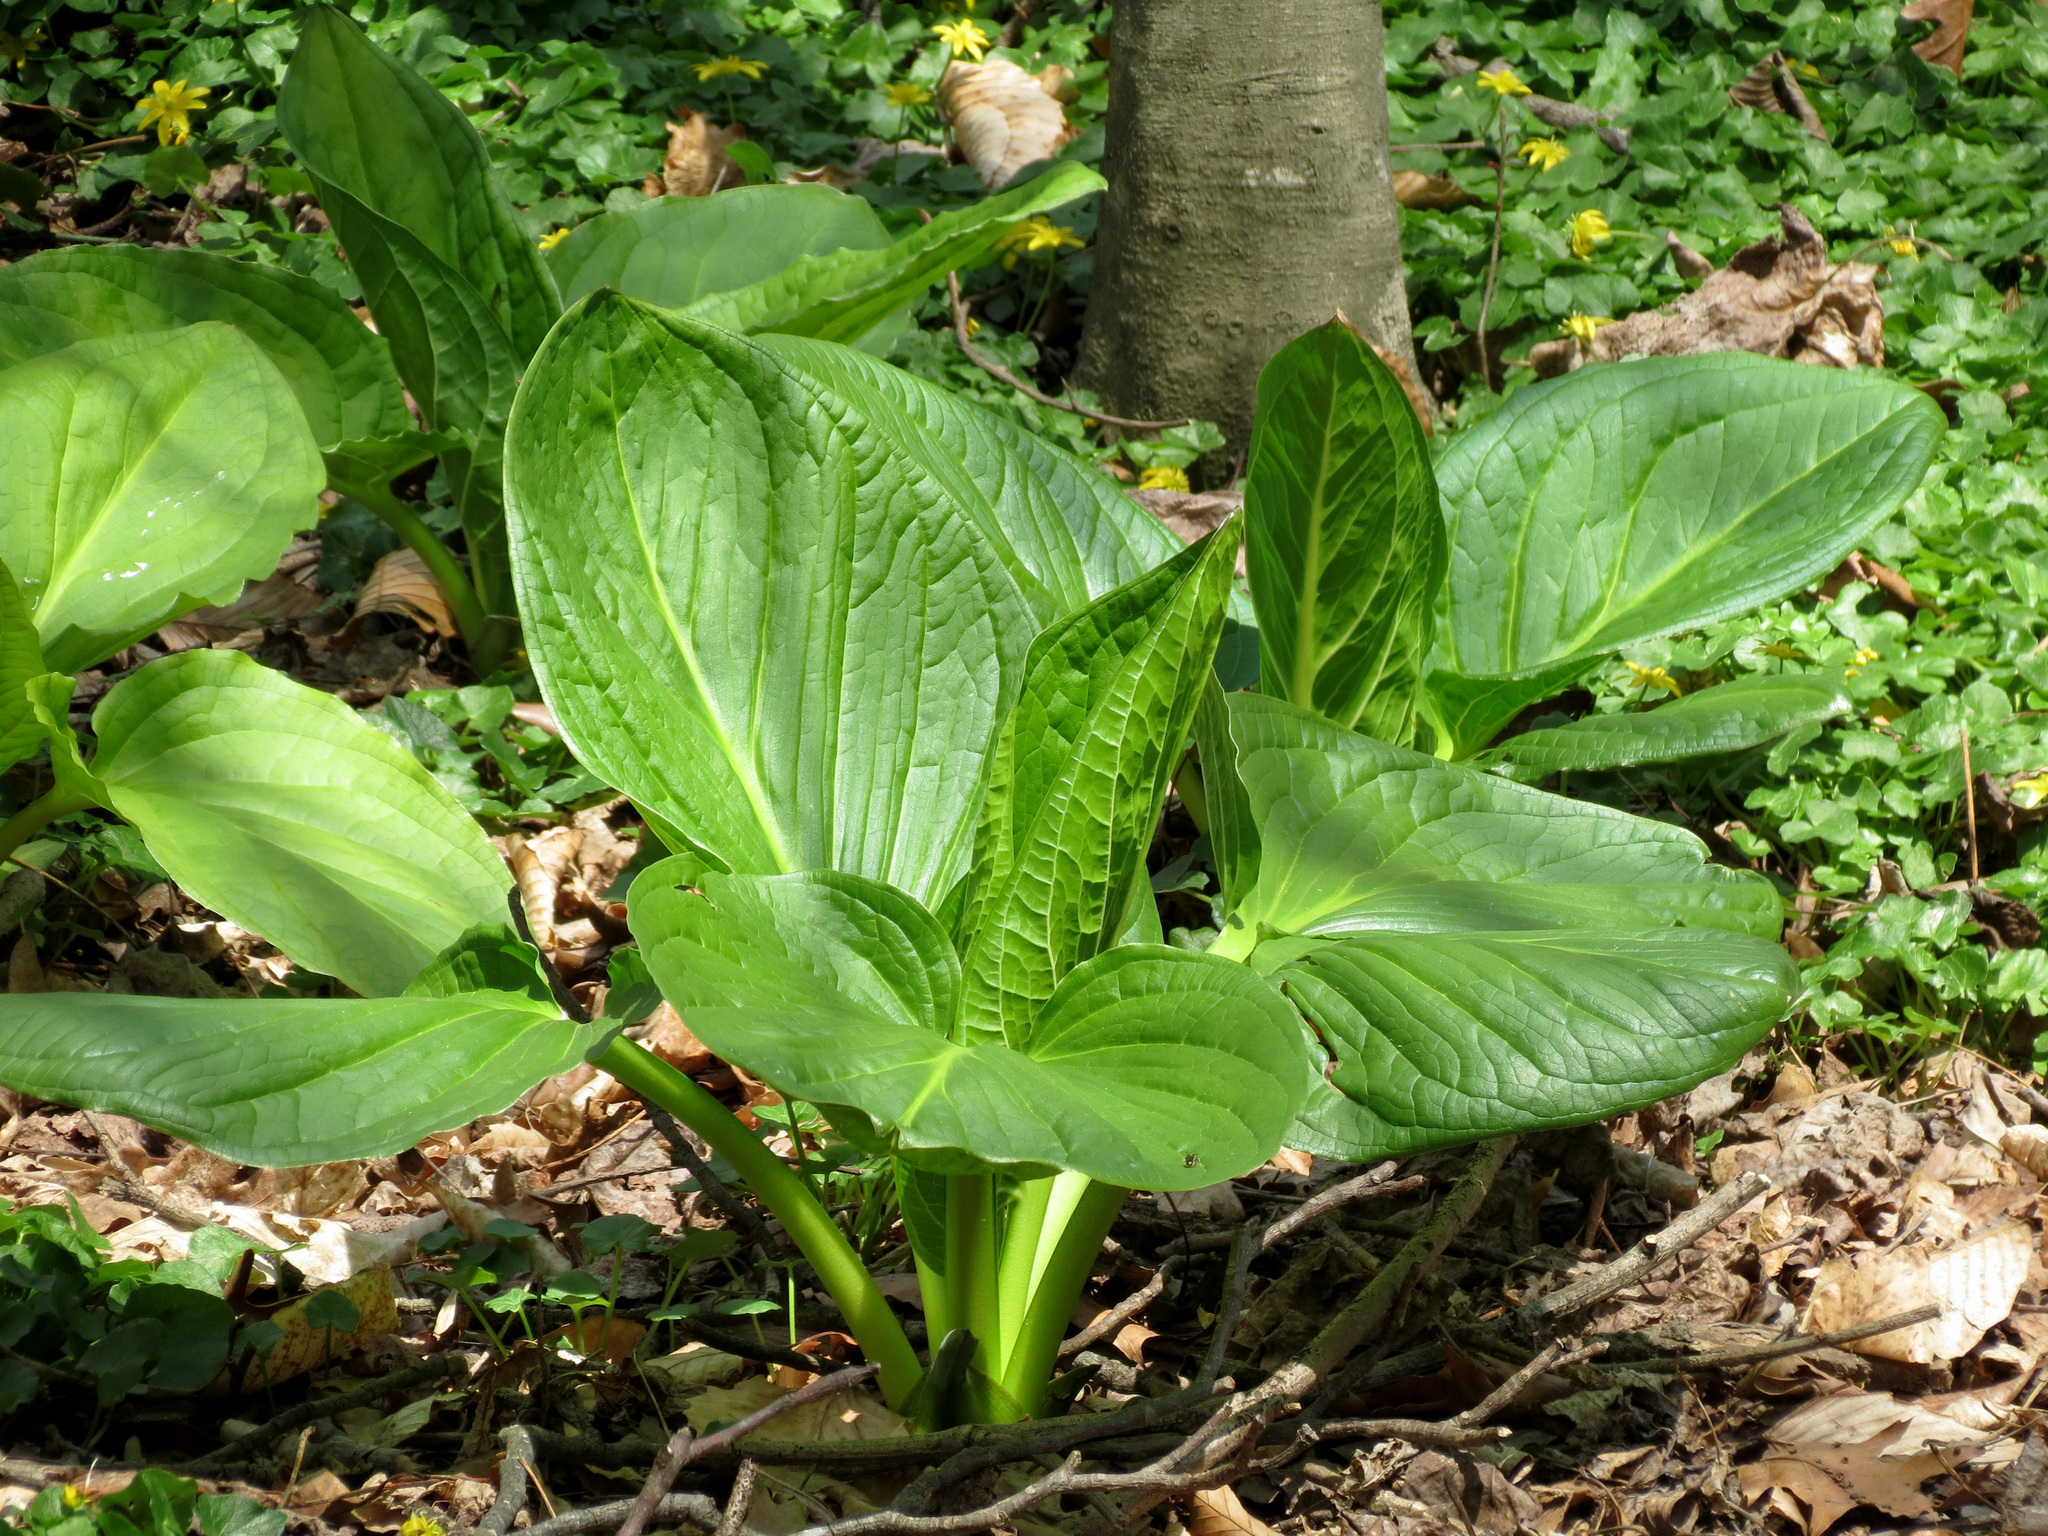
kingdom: Plantae
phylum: Tracheophyta
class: Liliopsida
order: Alismatales
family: Araceae
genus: Symplocarpus
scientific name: Symplocarpus foetidus
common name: Eastern skunk cabbage
